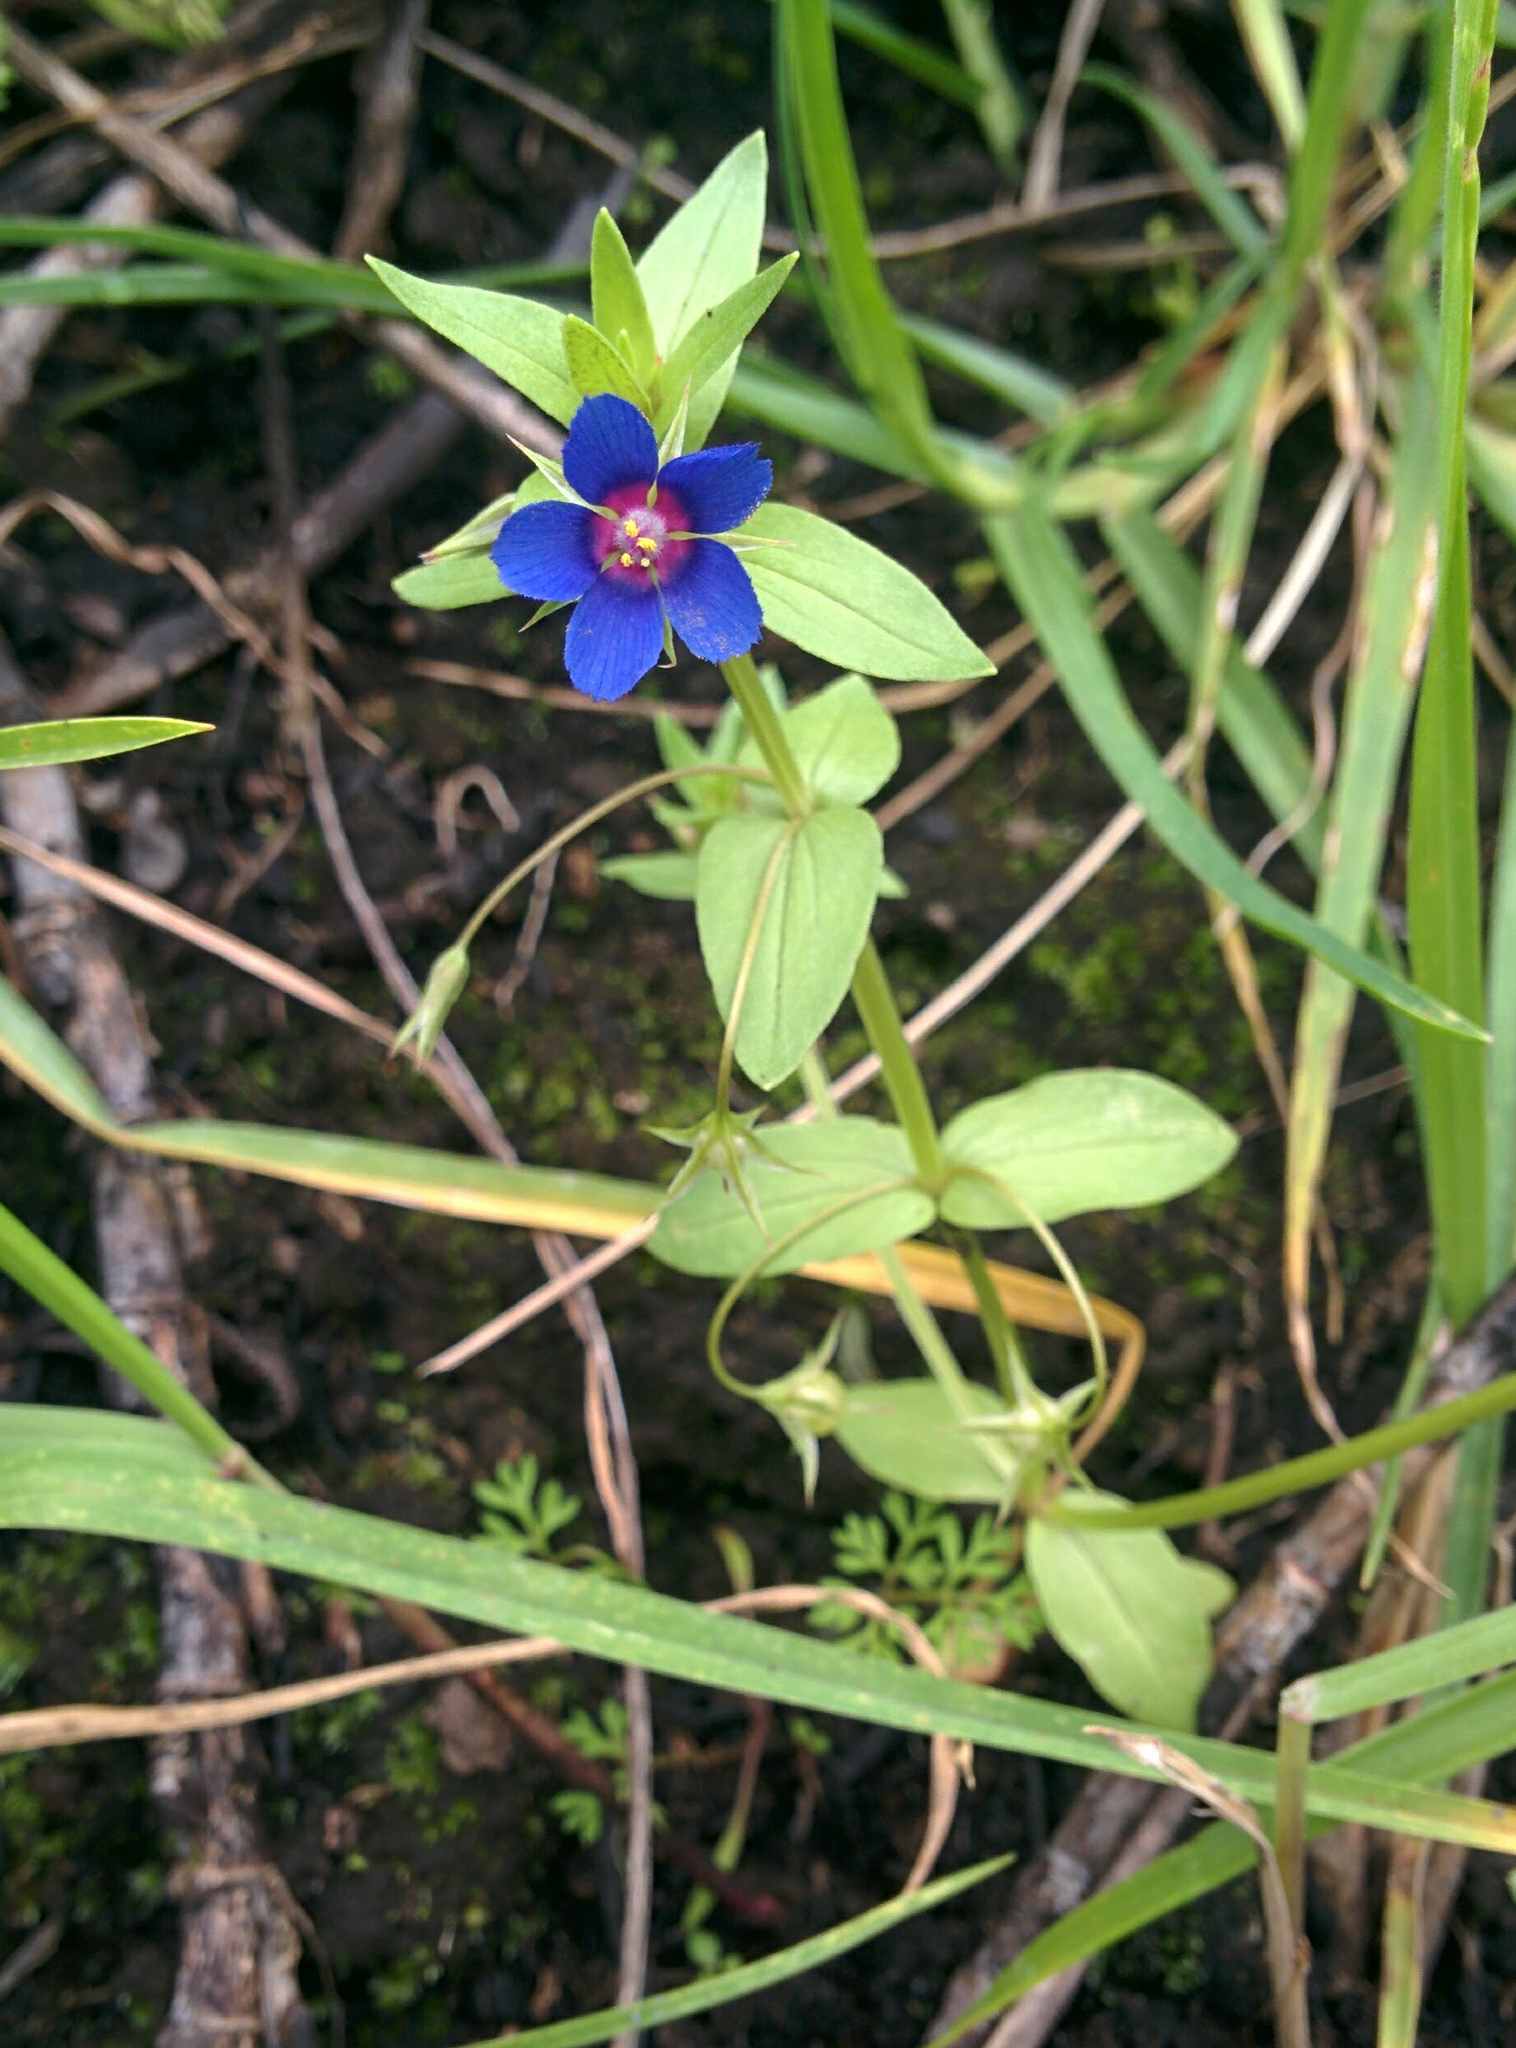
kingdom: Plantae
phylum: Tracheophyta
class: Magnoliopsida
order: Ericales
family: Primulaceae
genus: Lysimachia
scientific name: Lysimachia arvensis
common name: Scarlet pimpernel
